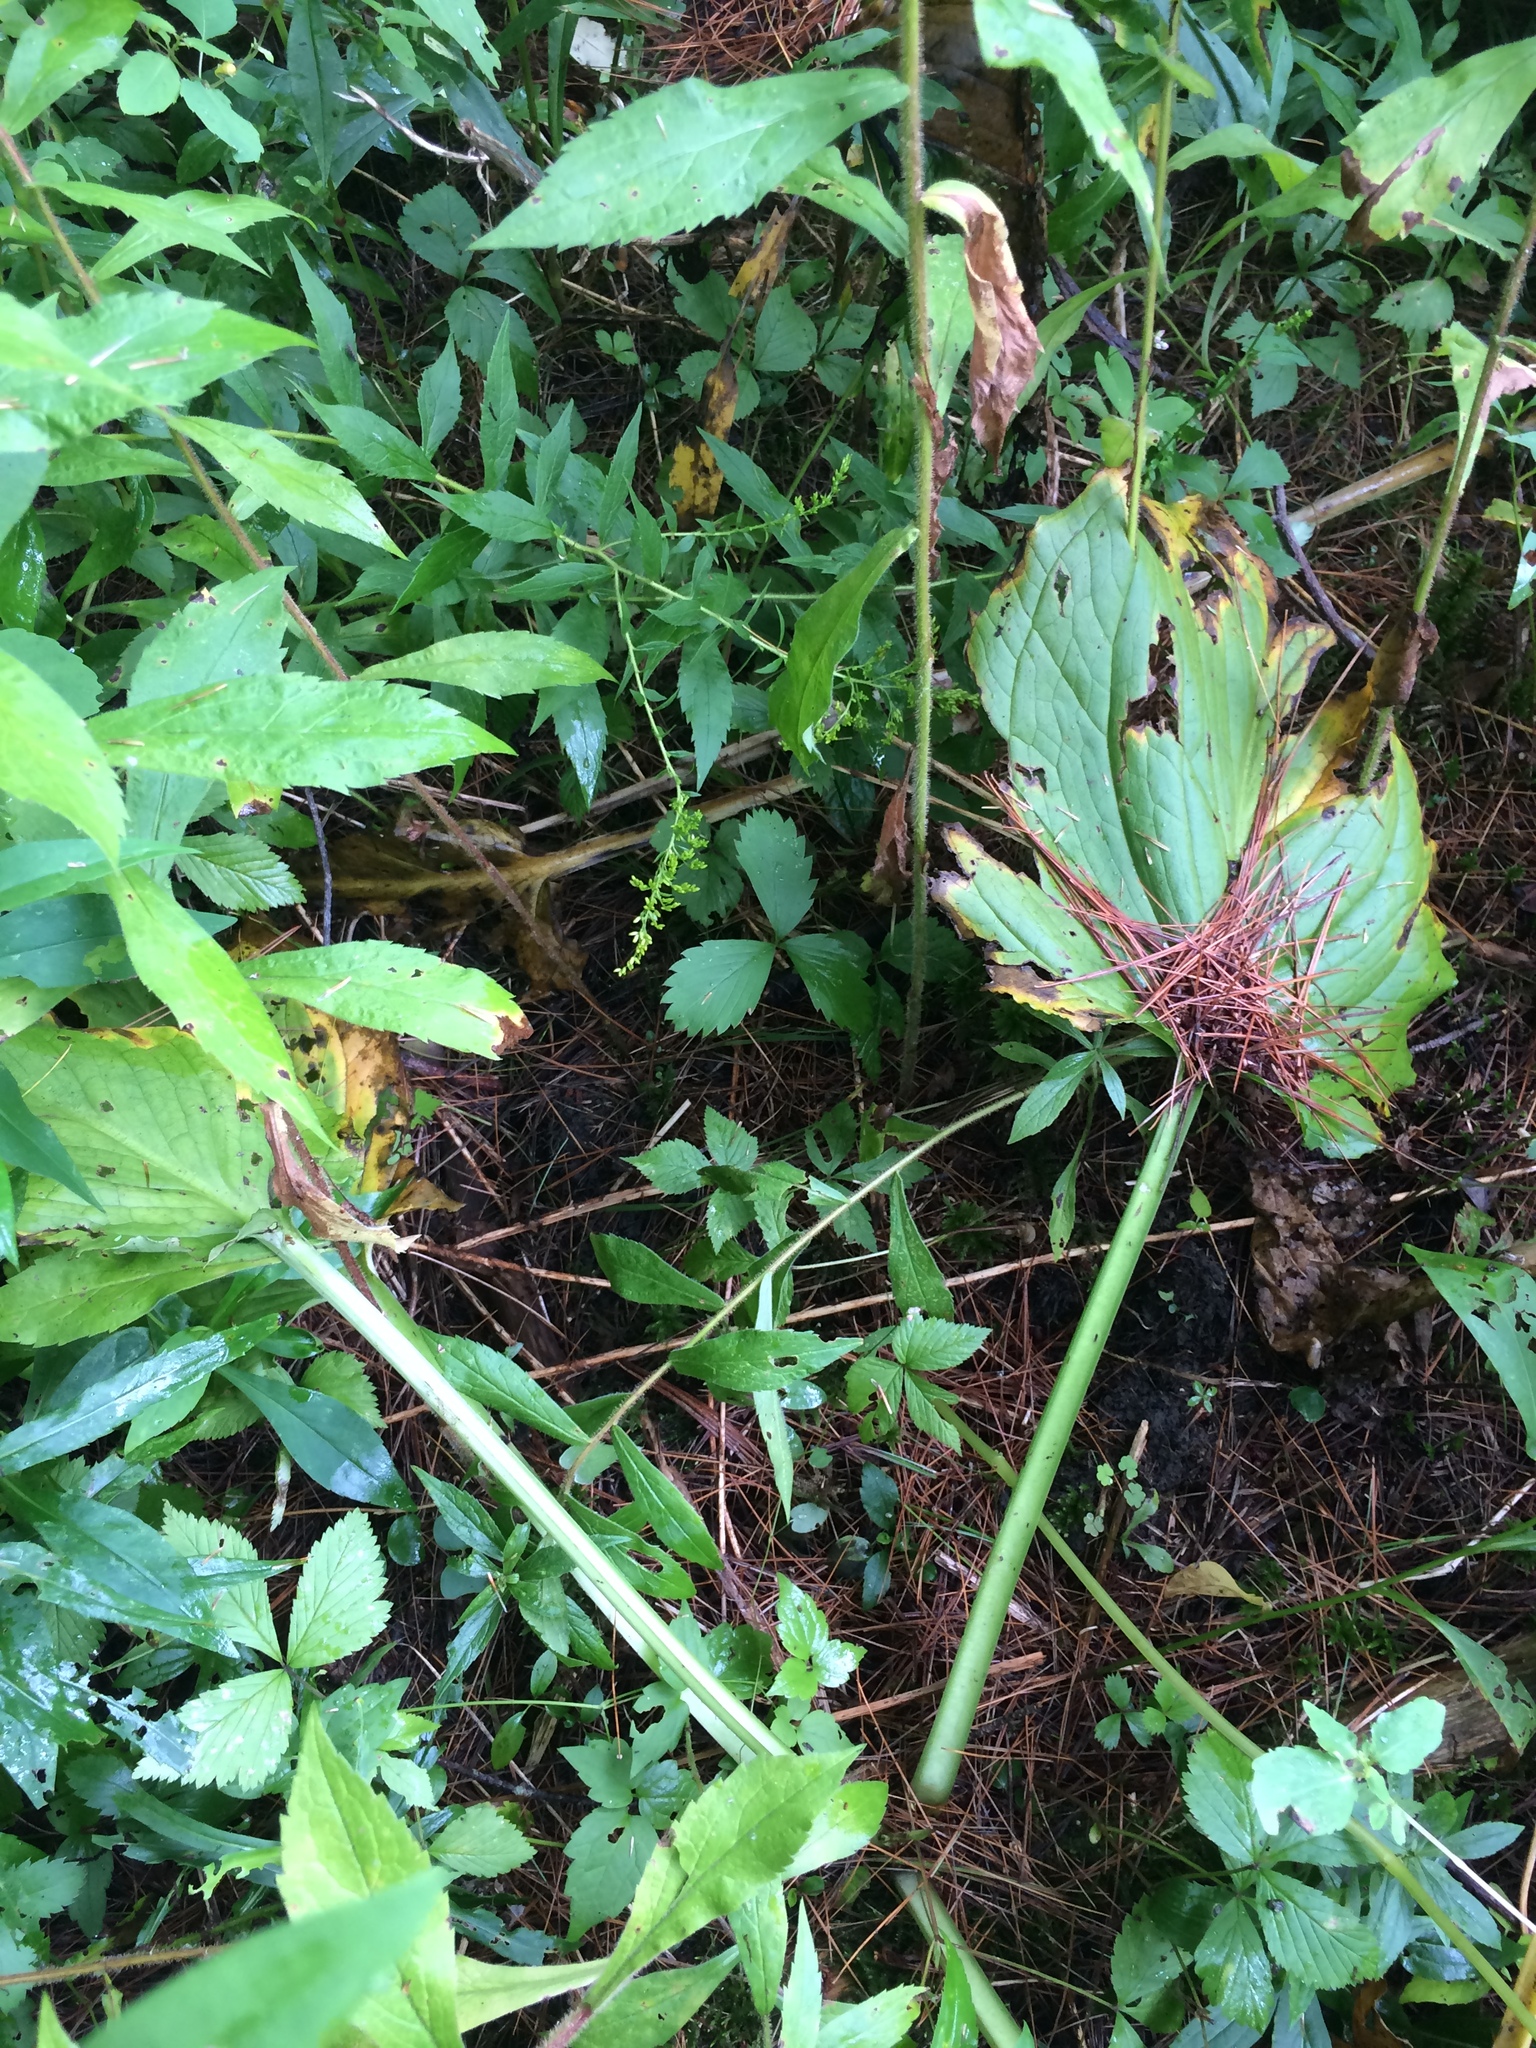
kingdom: Plantae
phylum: Tracheophyta
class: Liliopsida
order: Alismatales
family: Araceae
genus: Symplocarpus
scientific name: Symplocarpus foetidus
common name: Eastern skunk cabbage
